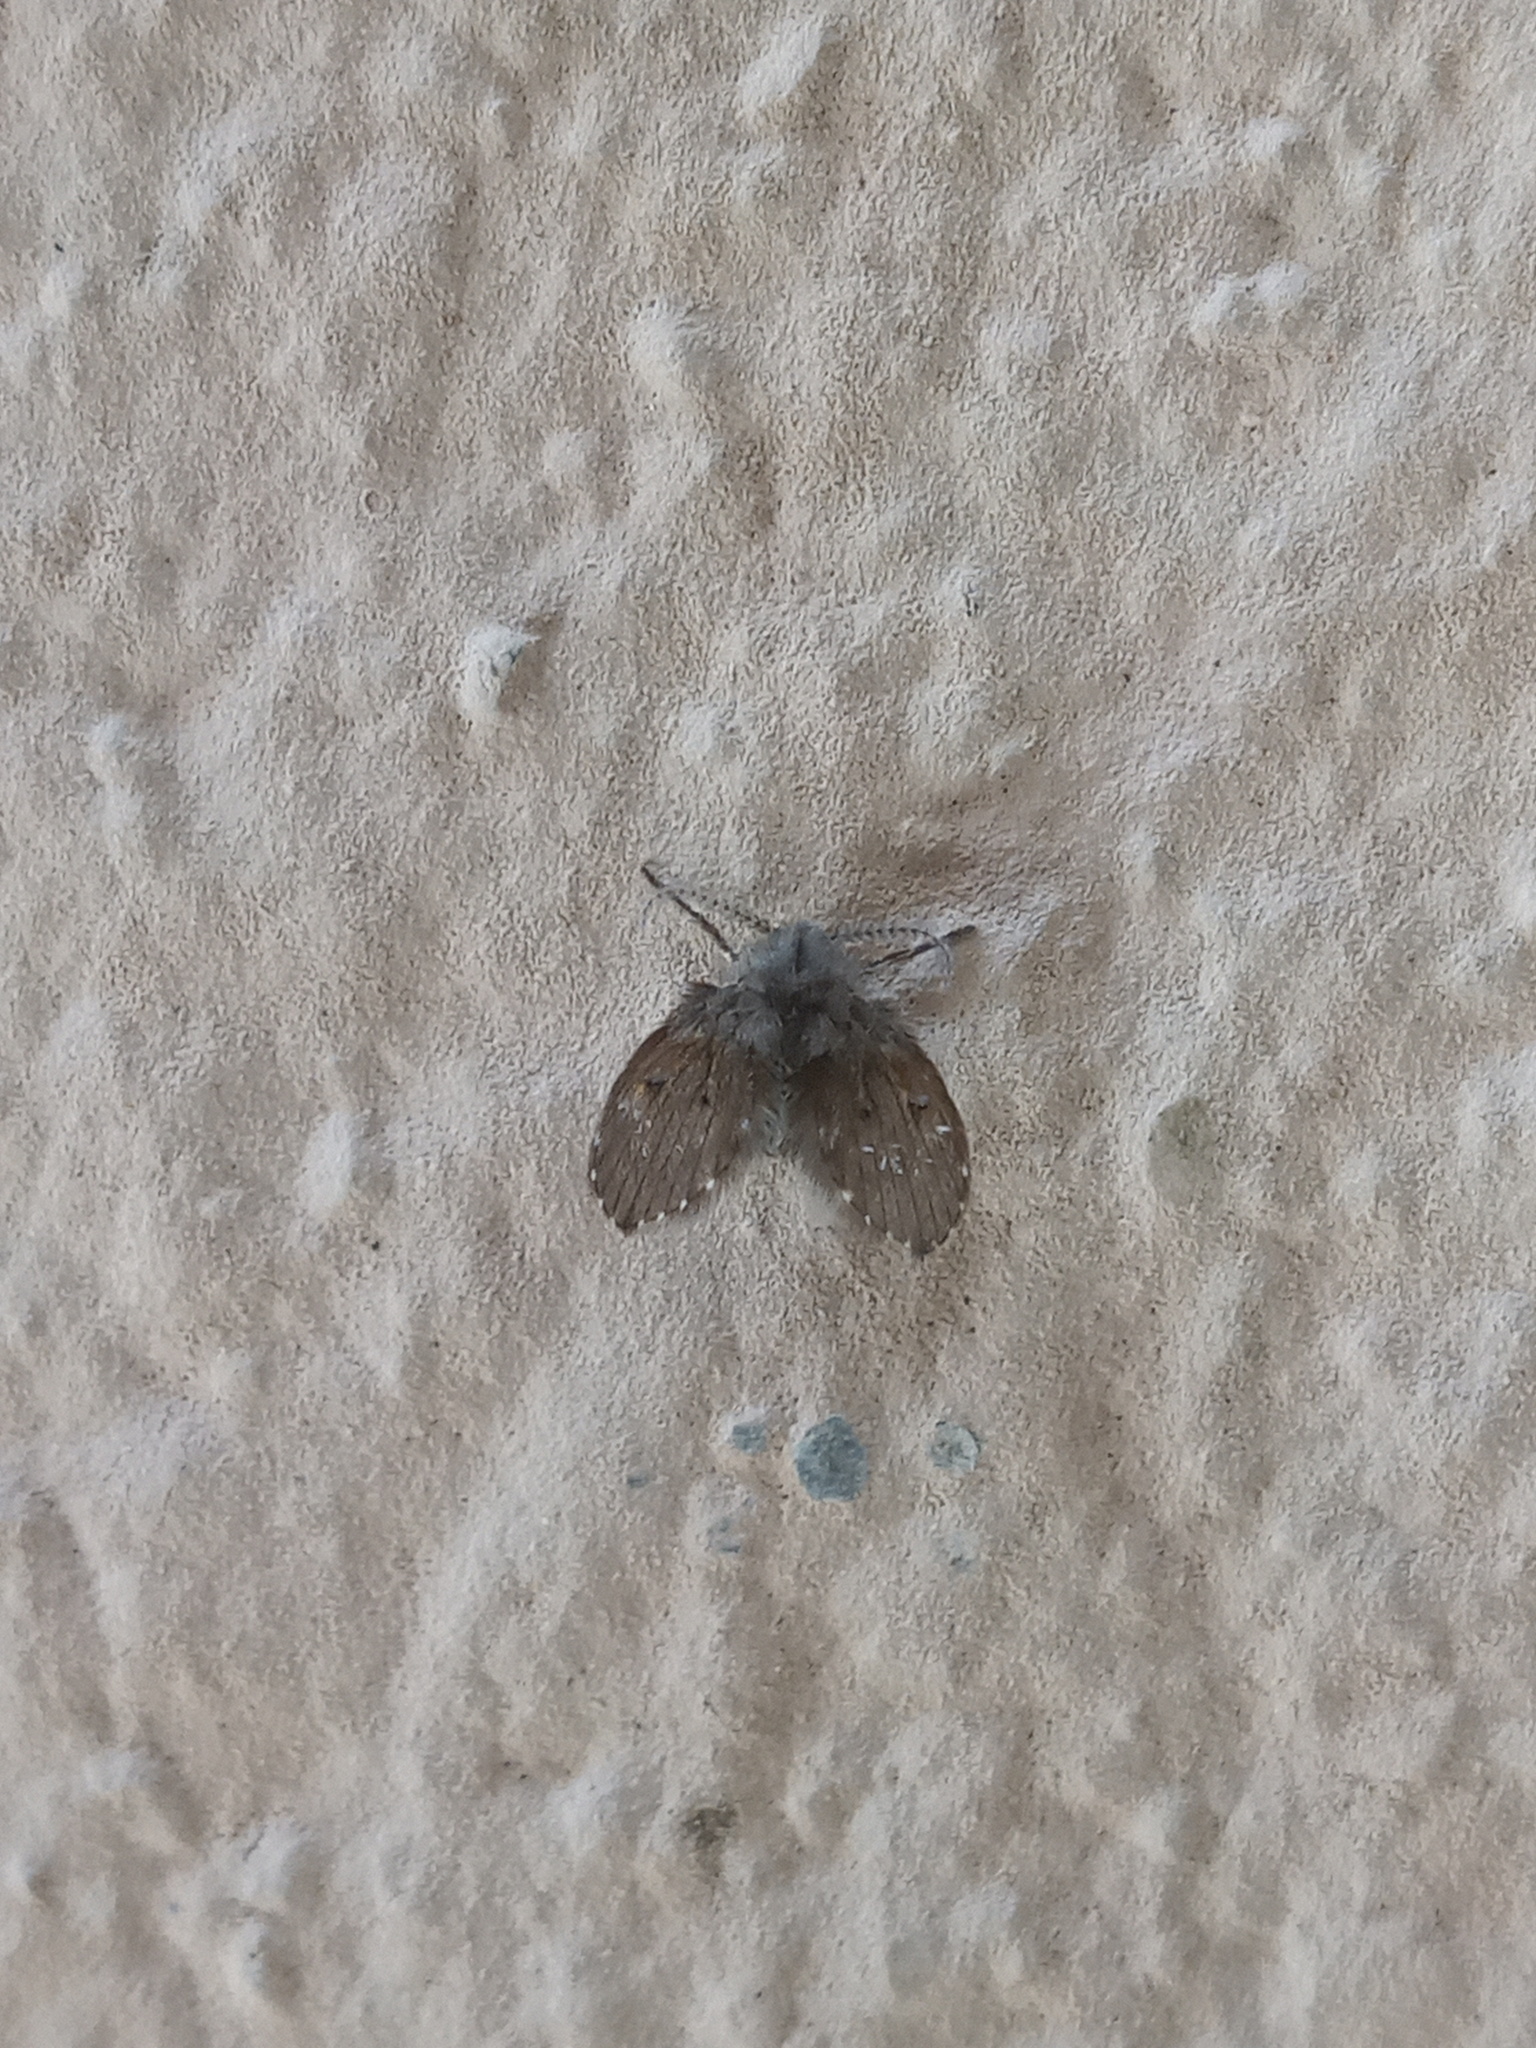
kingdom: Animalia
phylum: Arthropoda
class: Insecta
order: Diptera
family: Psychodidae
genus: Clogmia
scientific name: Clogmia albipunctatus
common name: White-spotted moth fly
